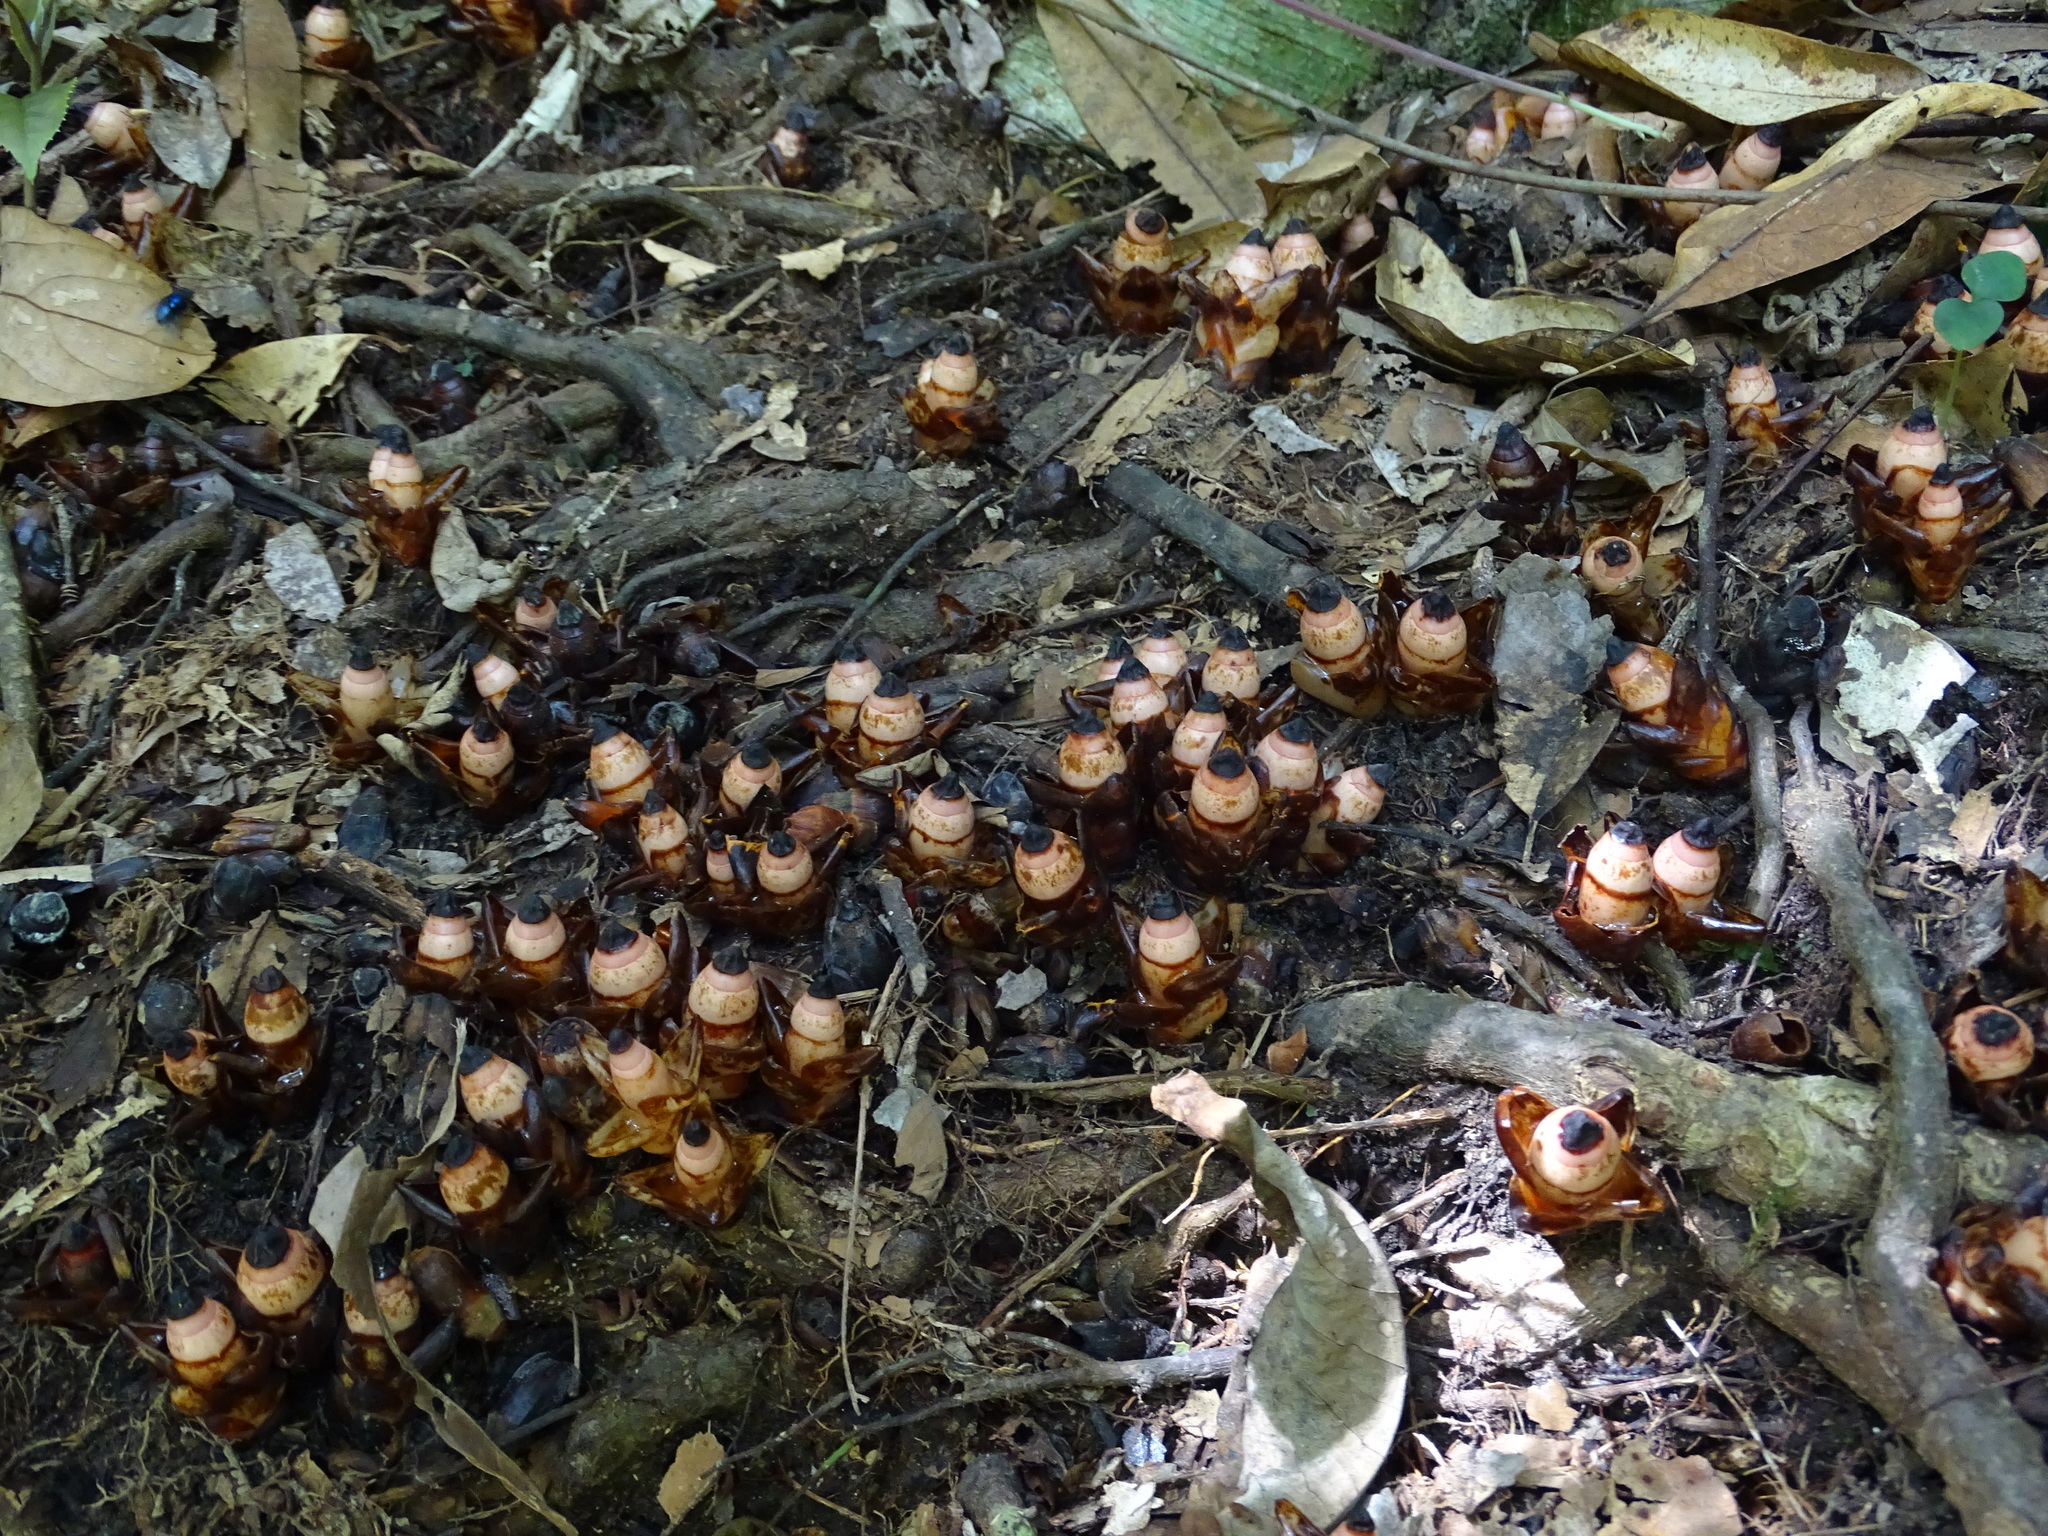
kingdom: Plantae
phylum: Tracheophyta
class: Magnoliopsida
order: Ericales
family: Mitrastemonaceae
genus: Mitrastemon
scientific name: Mitrastemon yamamotoi
